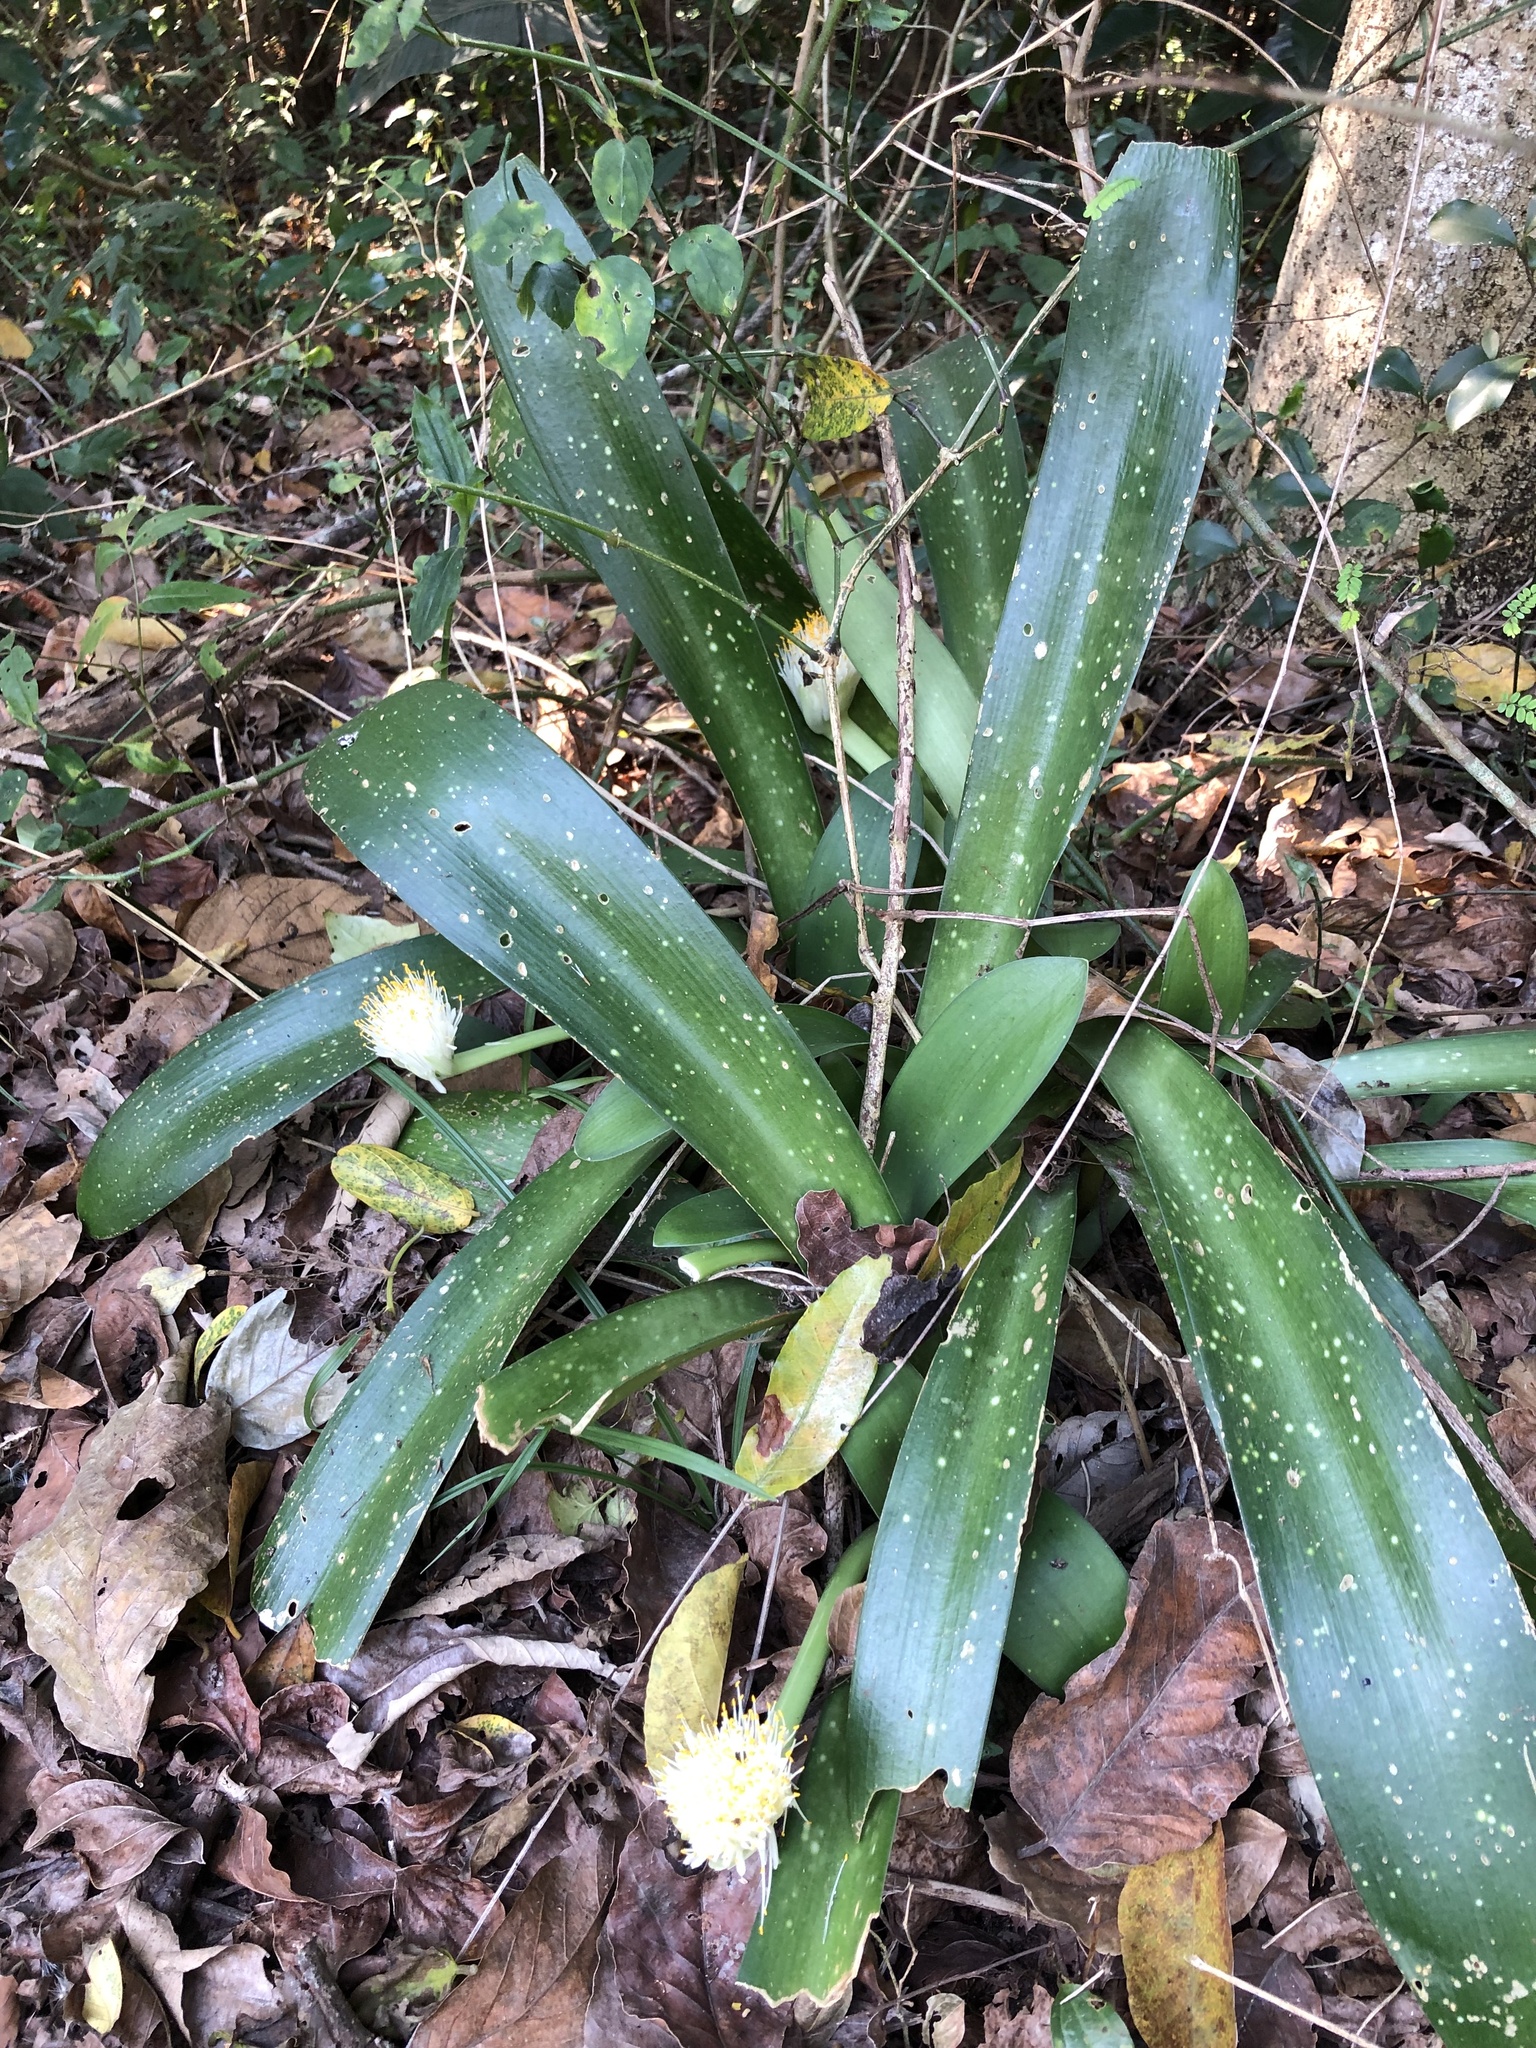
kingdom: Plantae
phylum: Tracheophyta
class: Liliopsida
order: Asparagales
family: Amaryllidaceae
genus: Haemanthus
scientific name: Haemanthus albiflos
